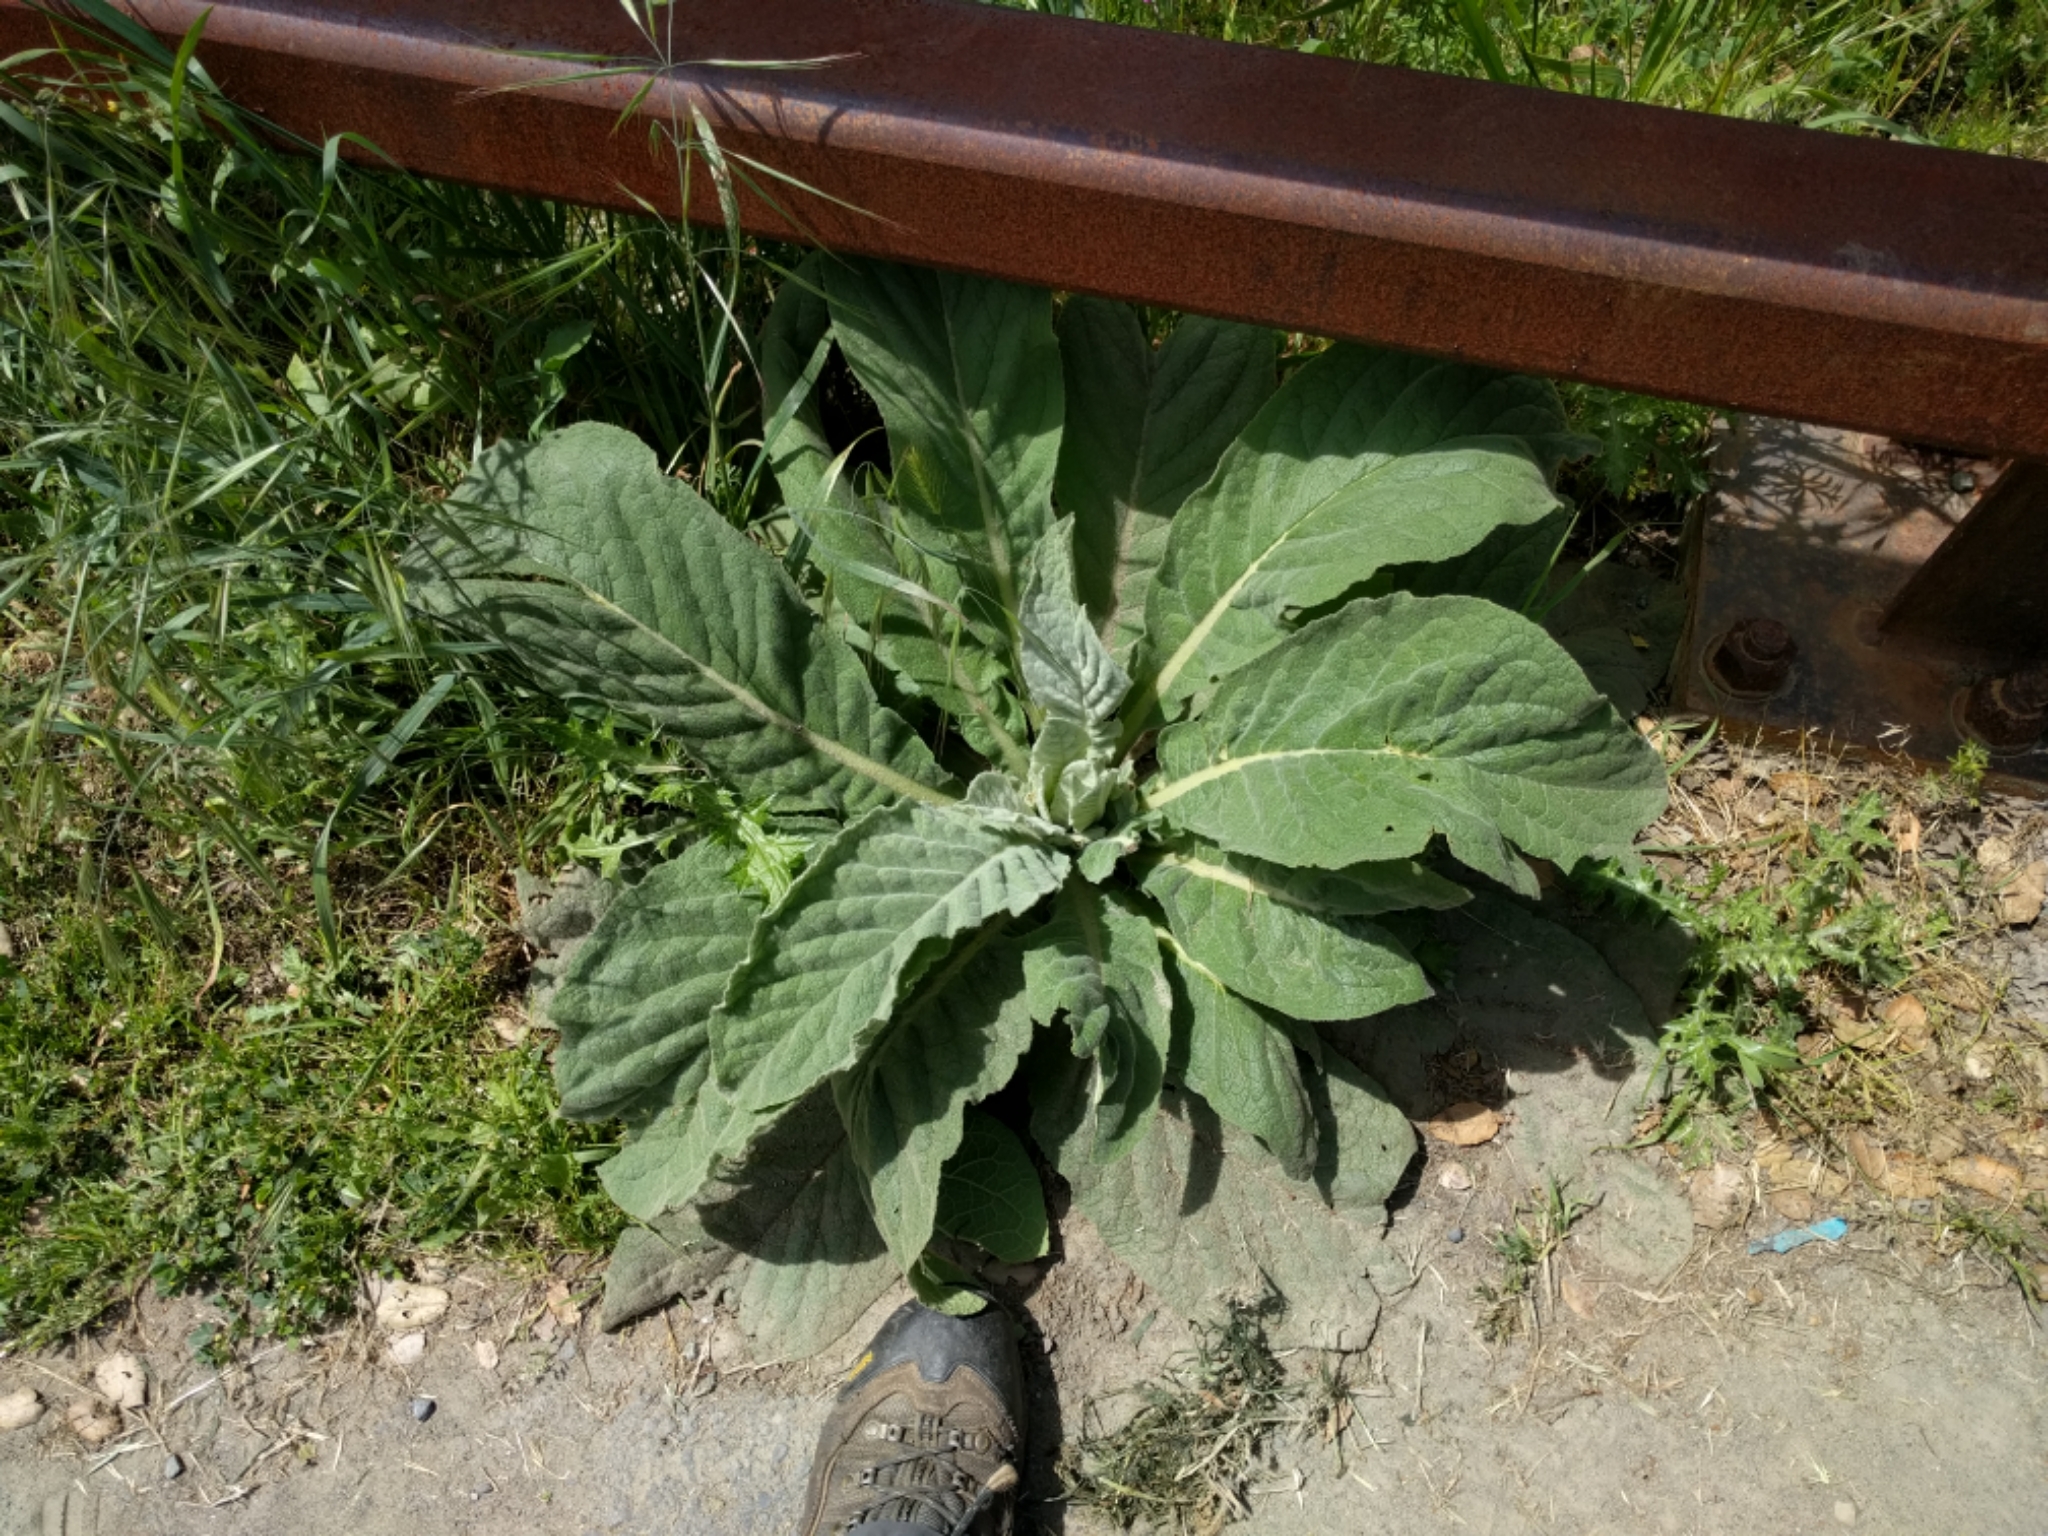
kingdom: Plantae
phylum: Tracheophyta
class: Magnoliopsida
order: Lamiales
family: Scrophulariaceae
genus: Verbascum
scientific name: Verbascum thapsus
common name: Common mullein
